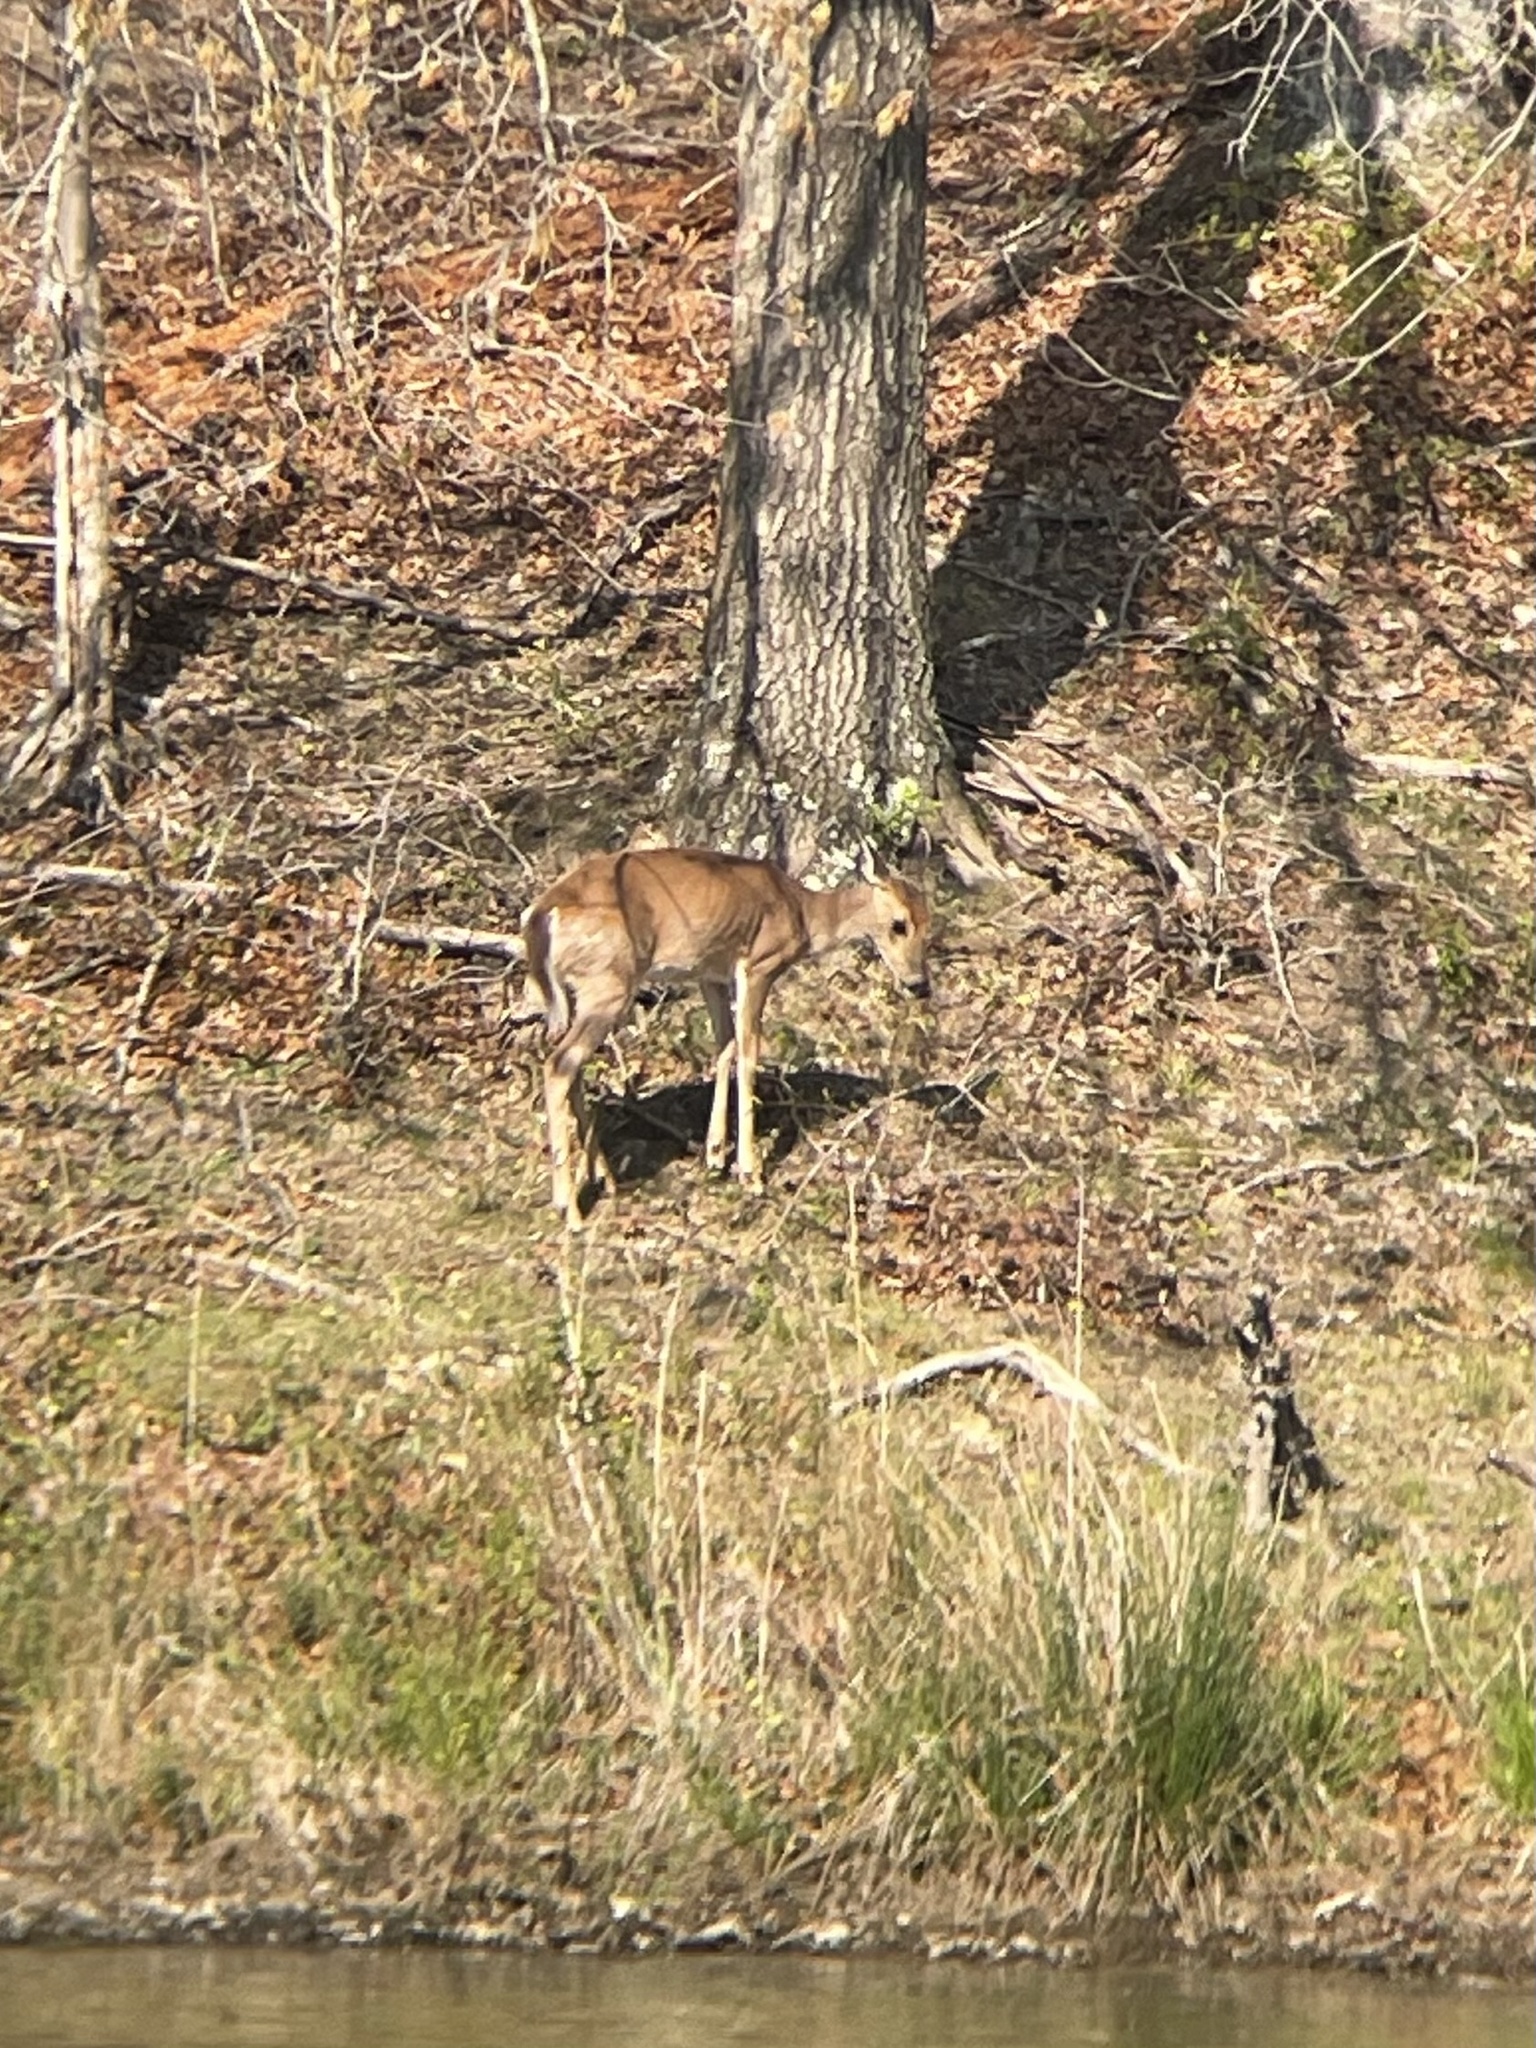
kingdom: Animalia
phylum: Chordata
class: Mammalia
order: Artiodactyla
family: Cervidae
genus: Odocoileus
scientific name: Odocoileus virginianus
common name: White-tailed deer
